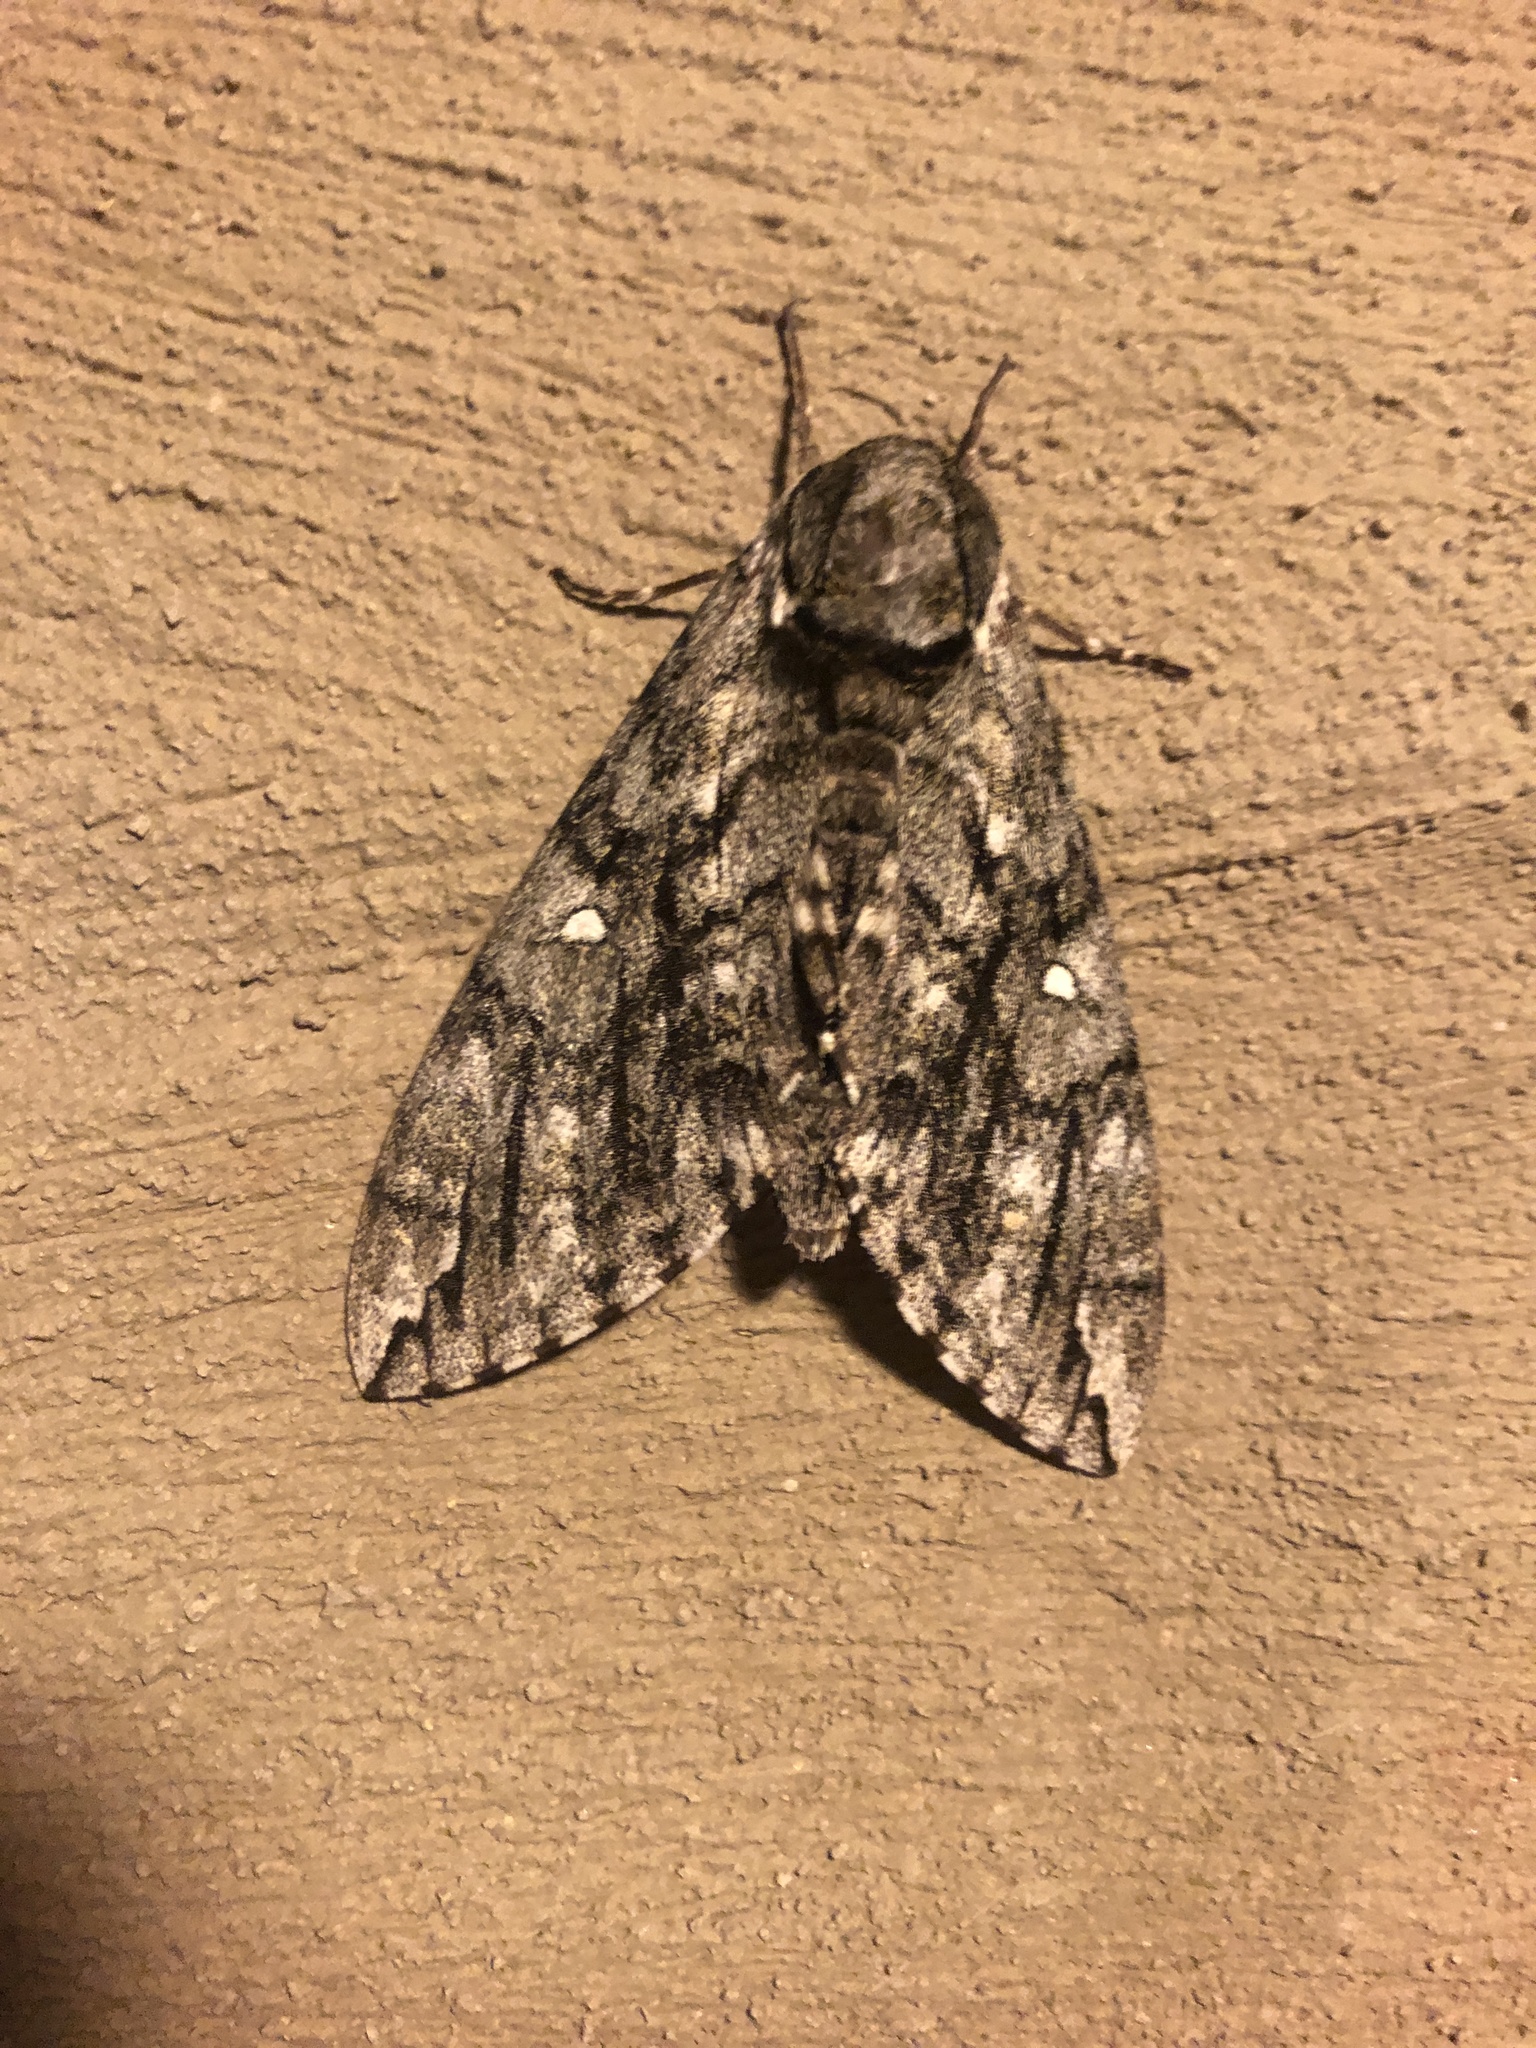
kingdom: Animalia
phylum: Arthropoda
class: Insecta
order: Lepidoptera
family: Sphingidae
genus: Ceratomia
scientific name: Ceratomia undulosa
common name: Waved sphinx
